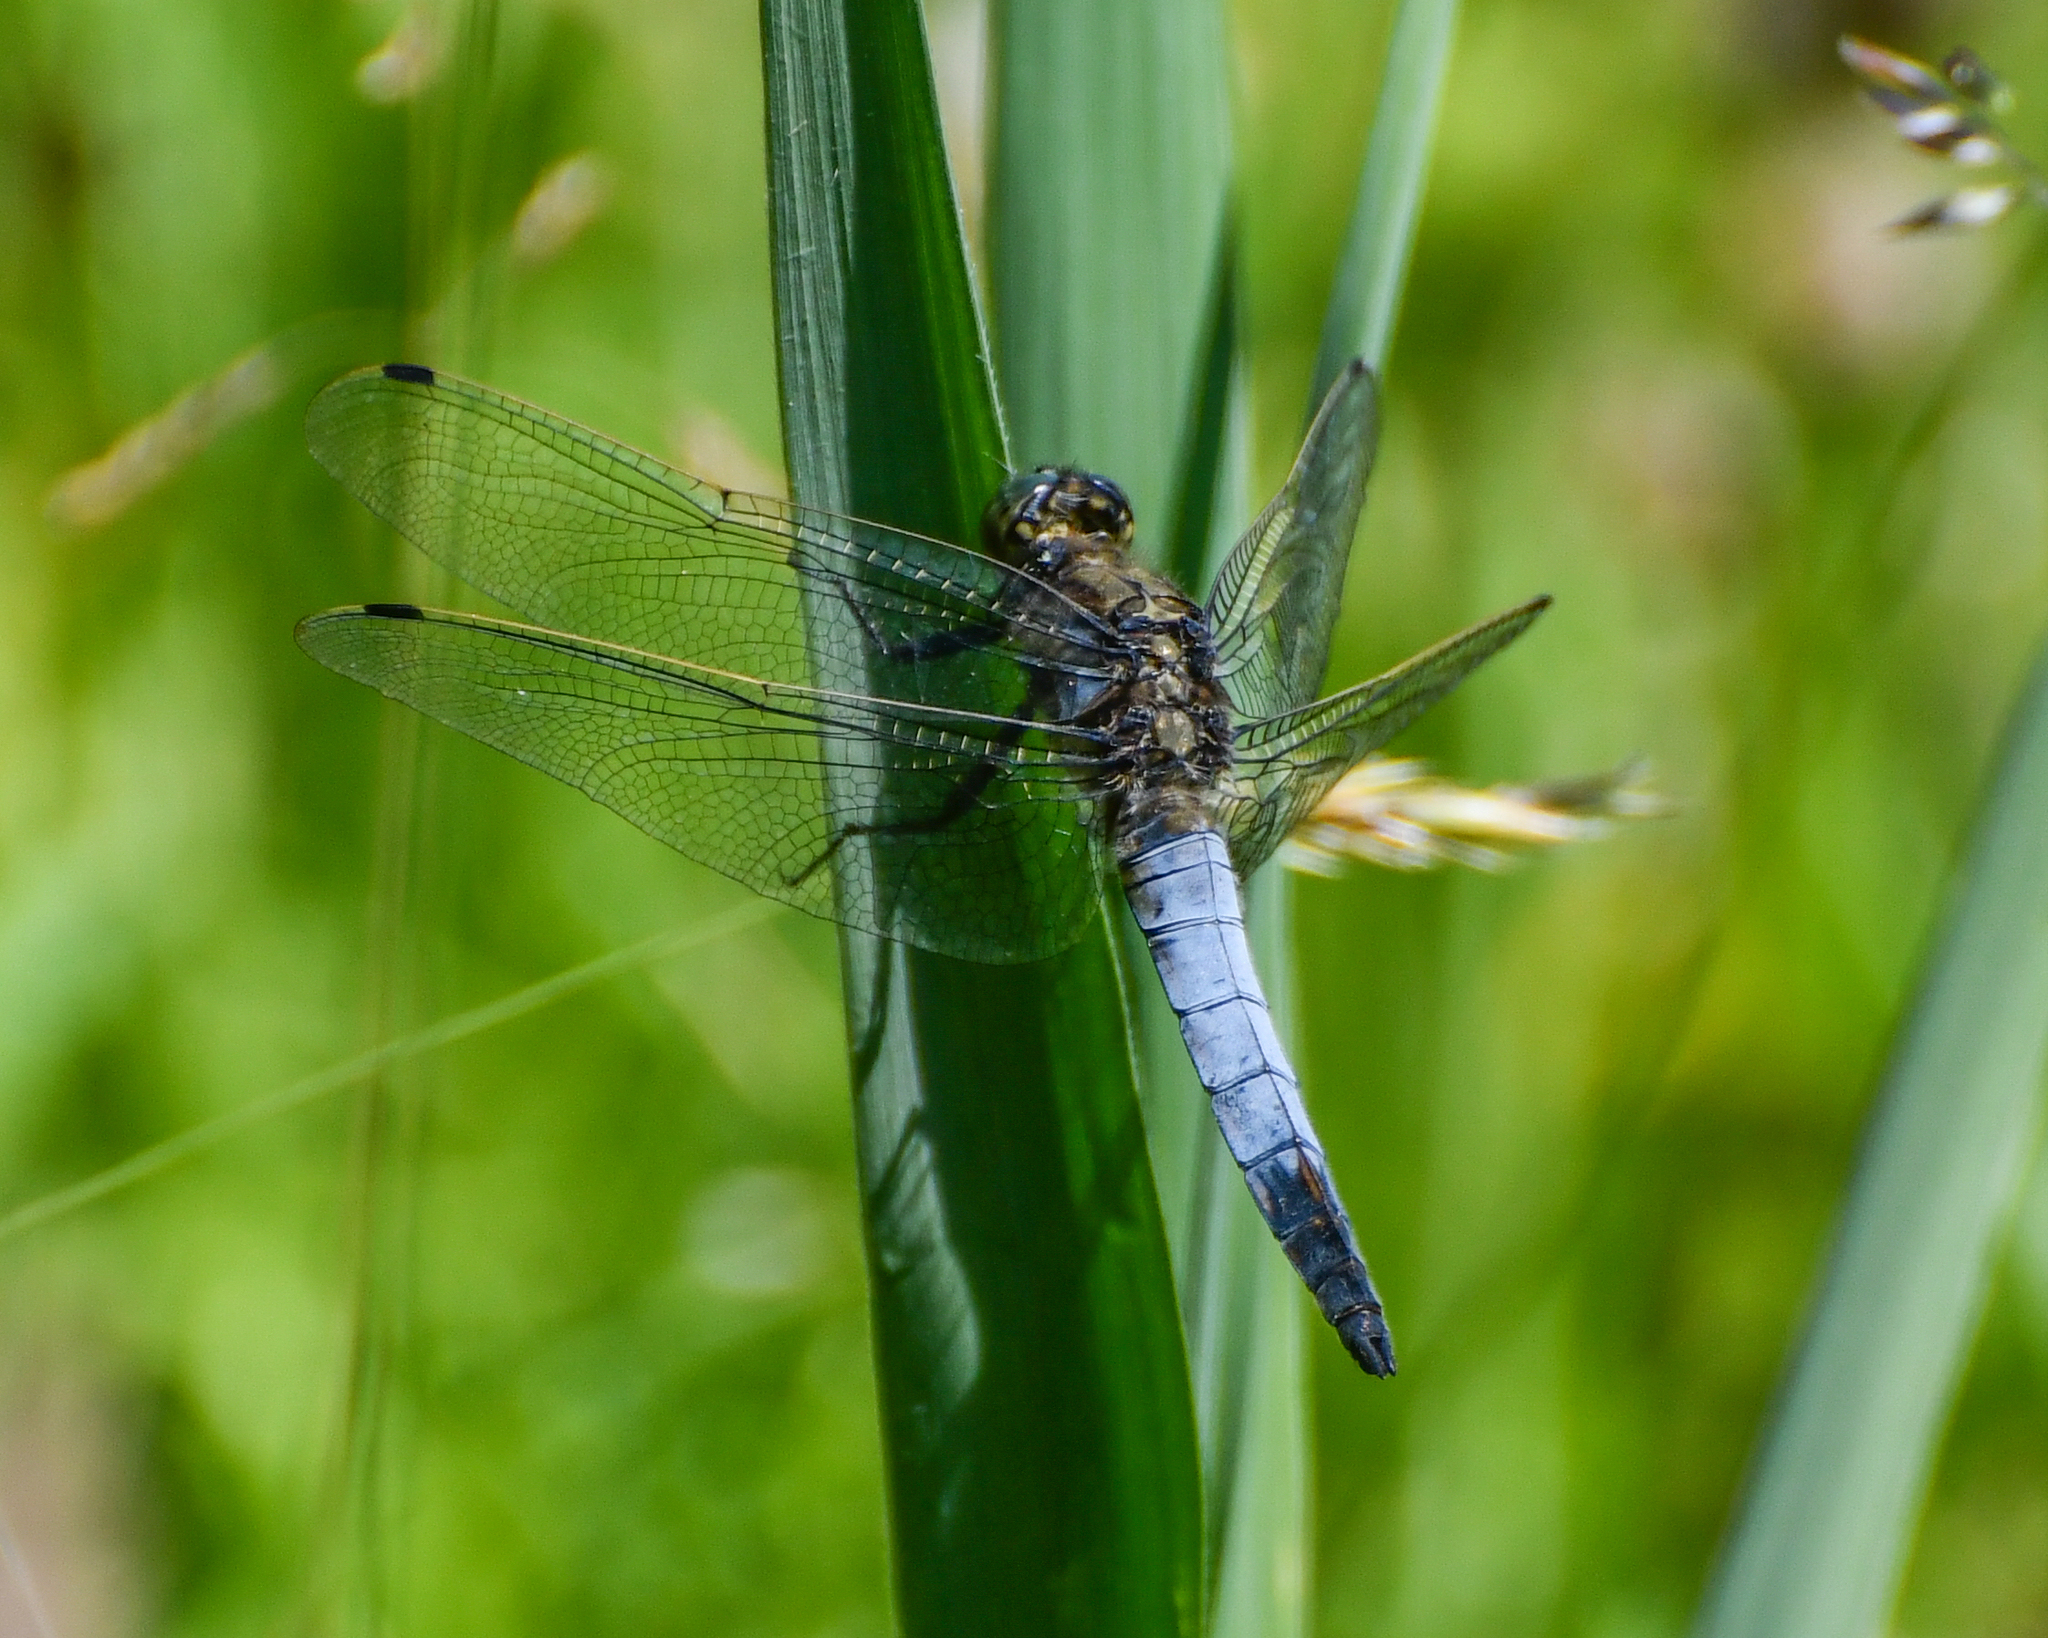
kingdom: Animalia
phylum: Arthropoda
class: Insecta
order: Odonata
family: Libellulidae
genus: Orthetrum
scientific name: Orthetrum cancellatum
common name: Black-tailed skimmer
